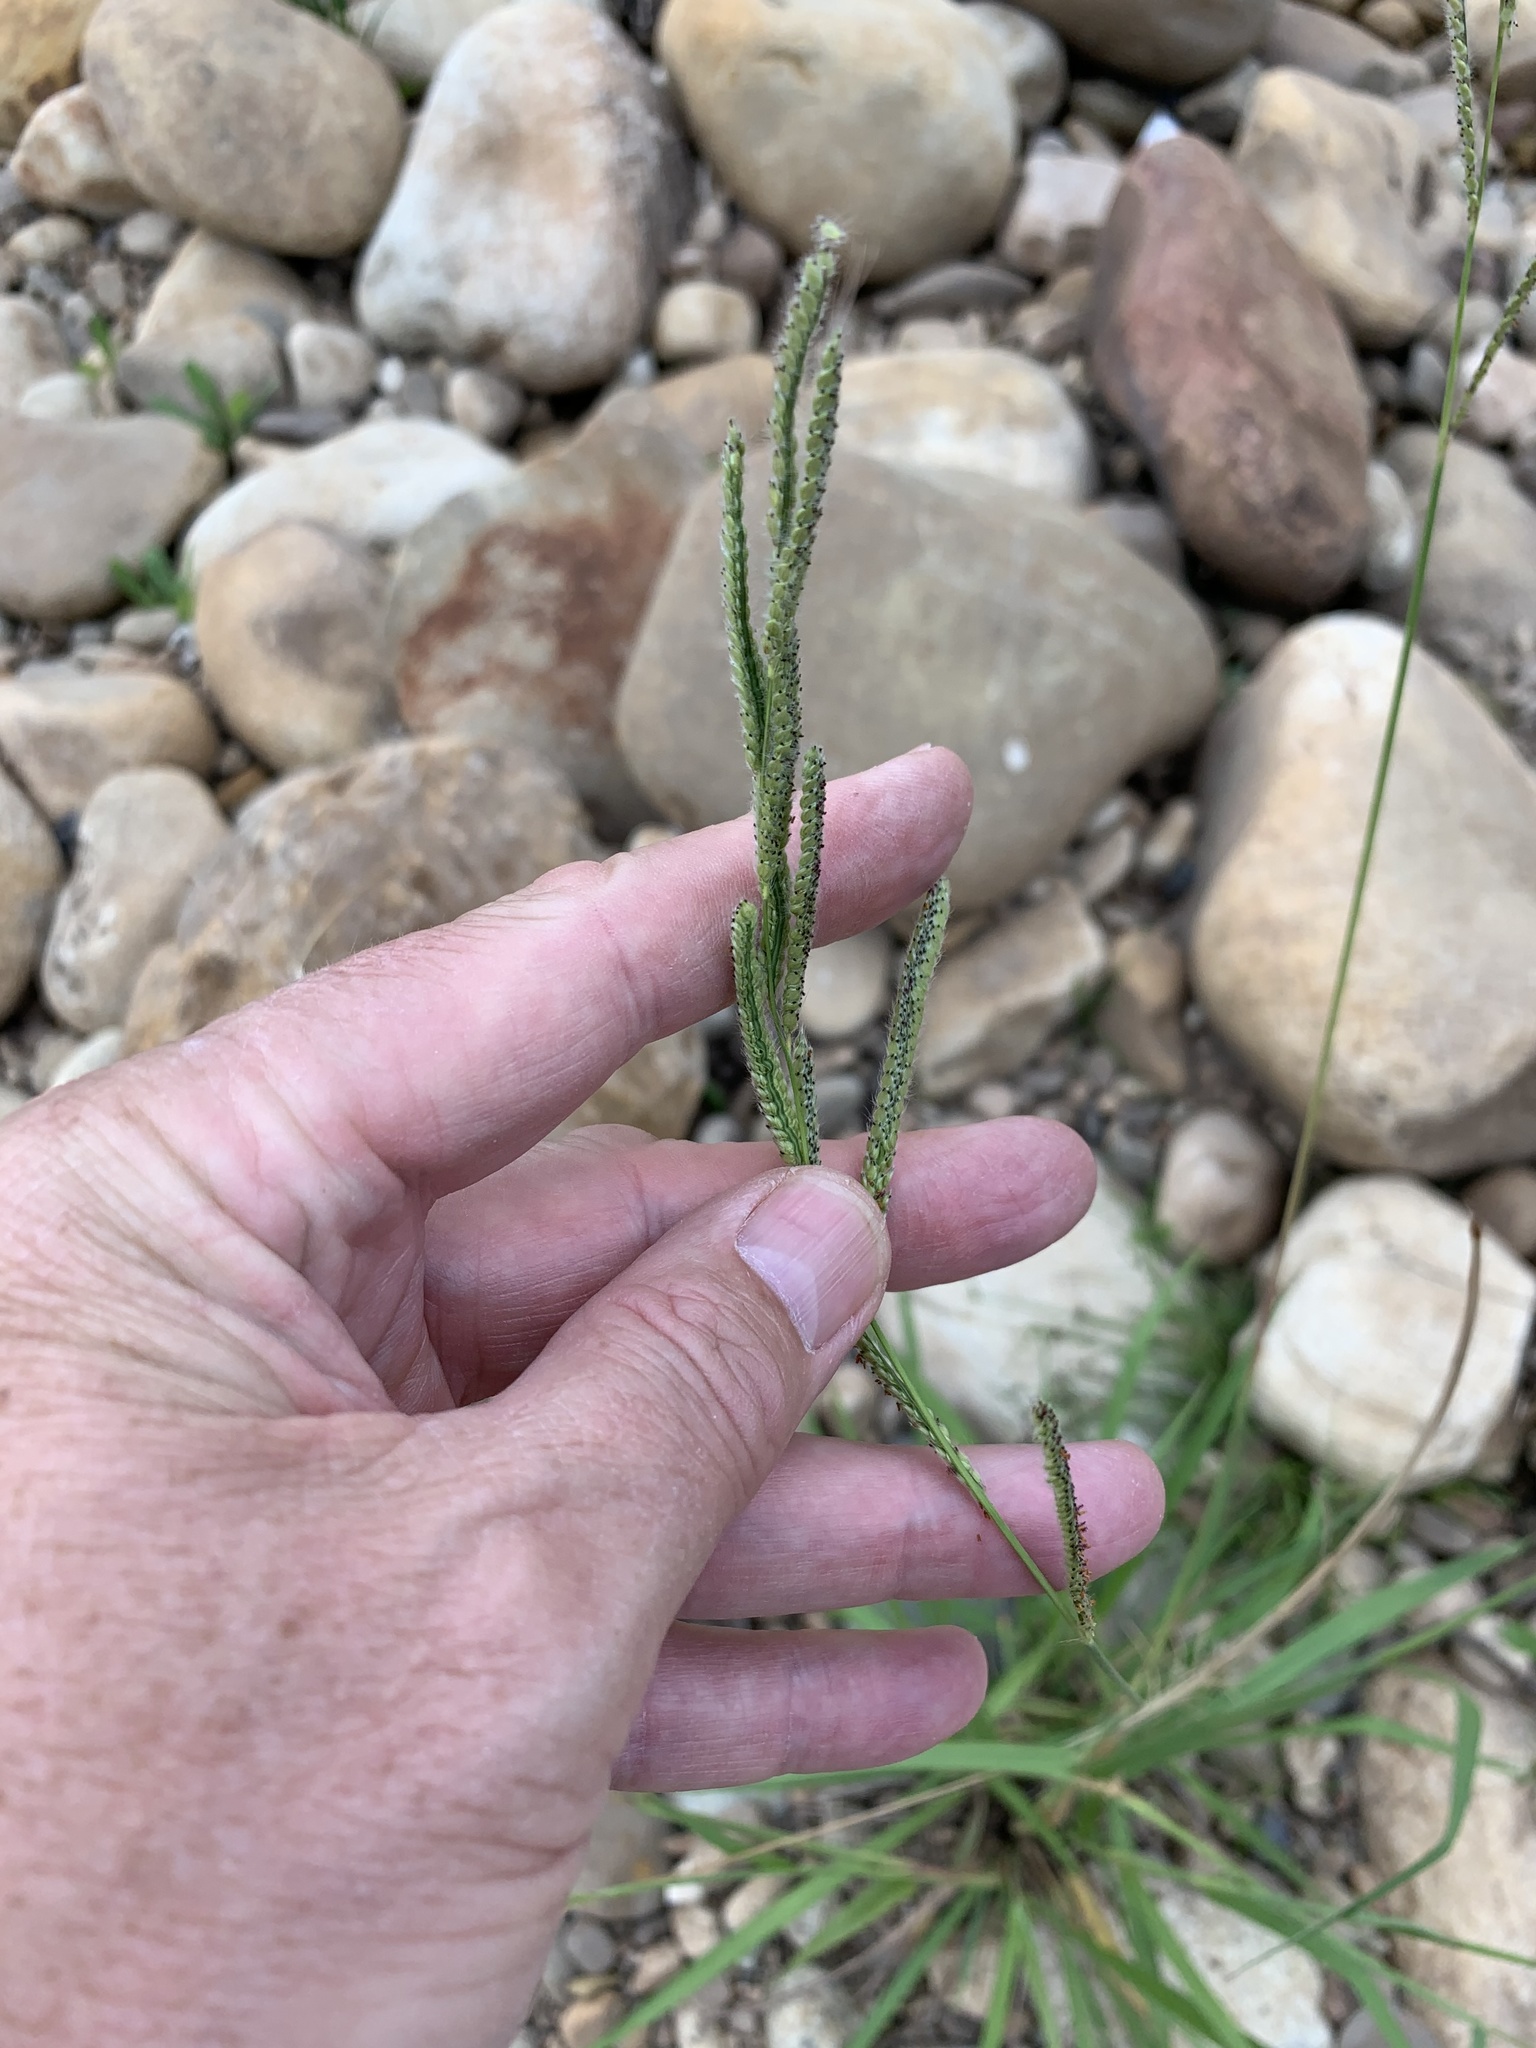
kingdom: Plantae
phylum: Tracheophyta
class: Liliopsida
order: Poales
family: Poaceae
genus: Paspalum
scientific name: Paspalum urvillei
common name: Vasey's grass
